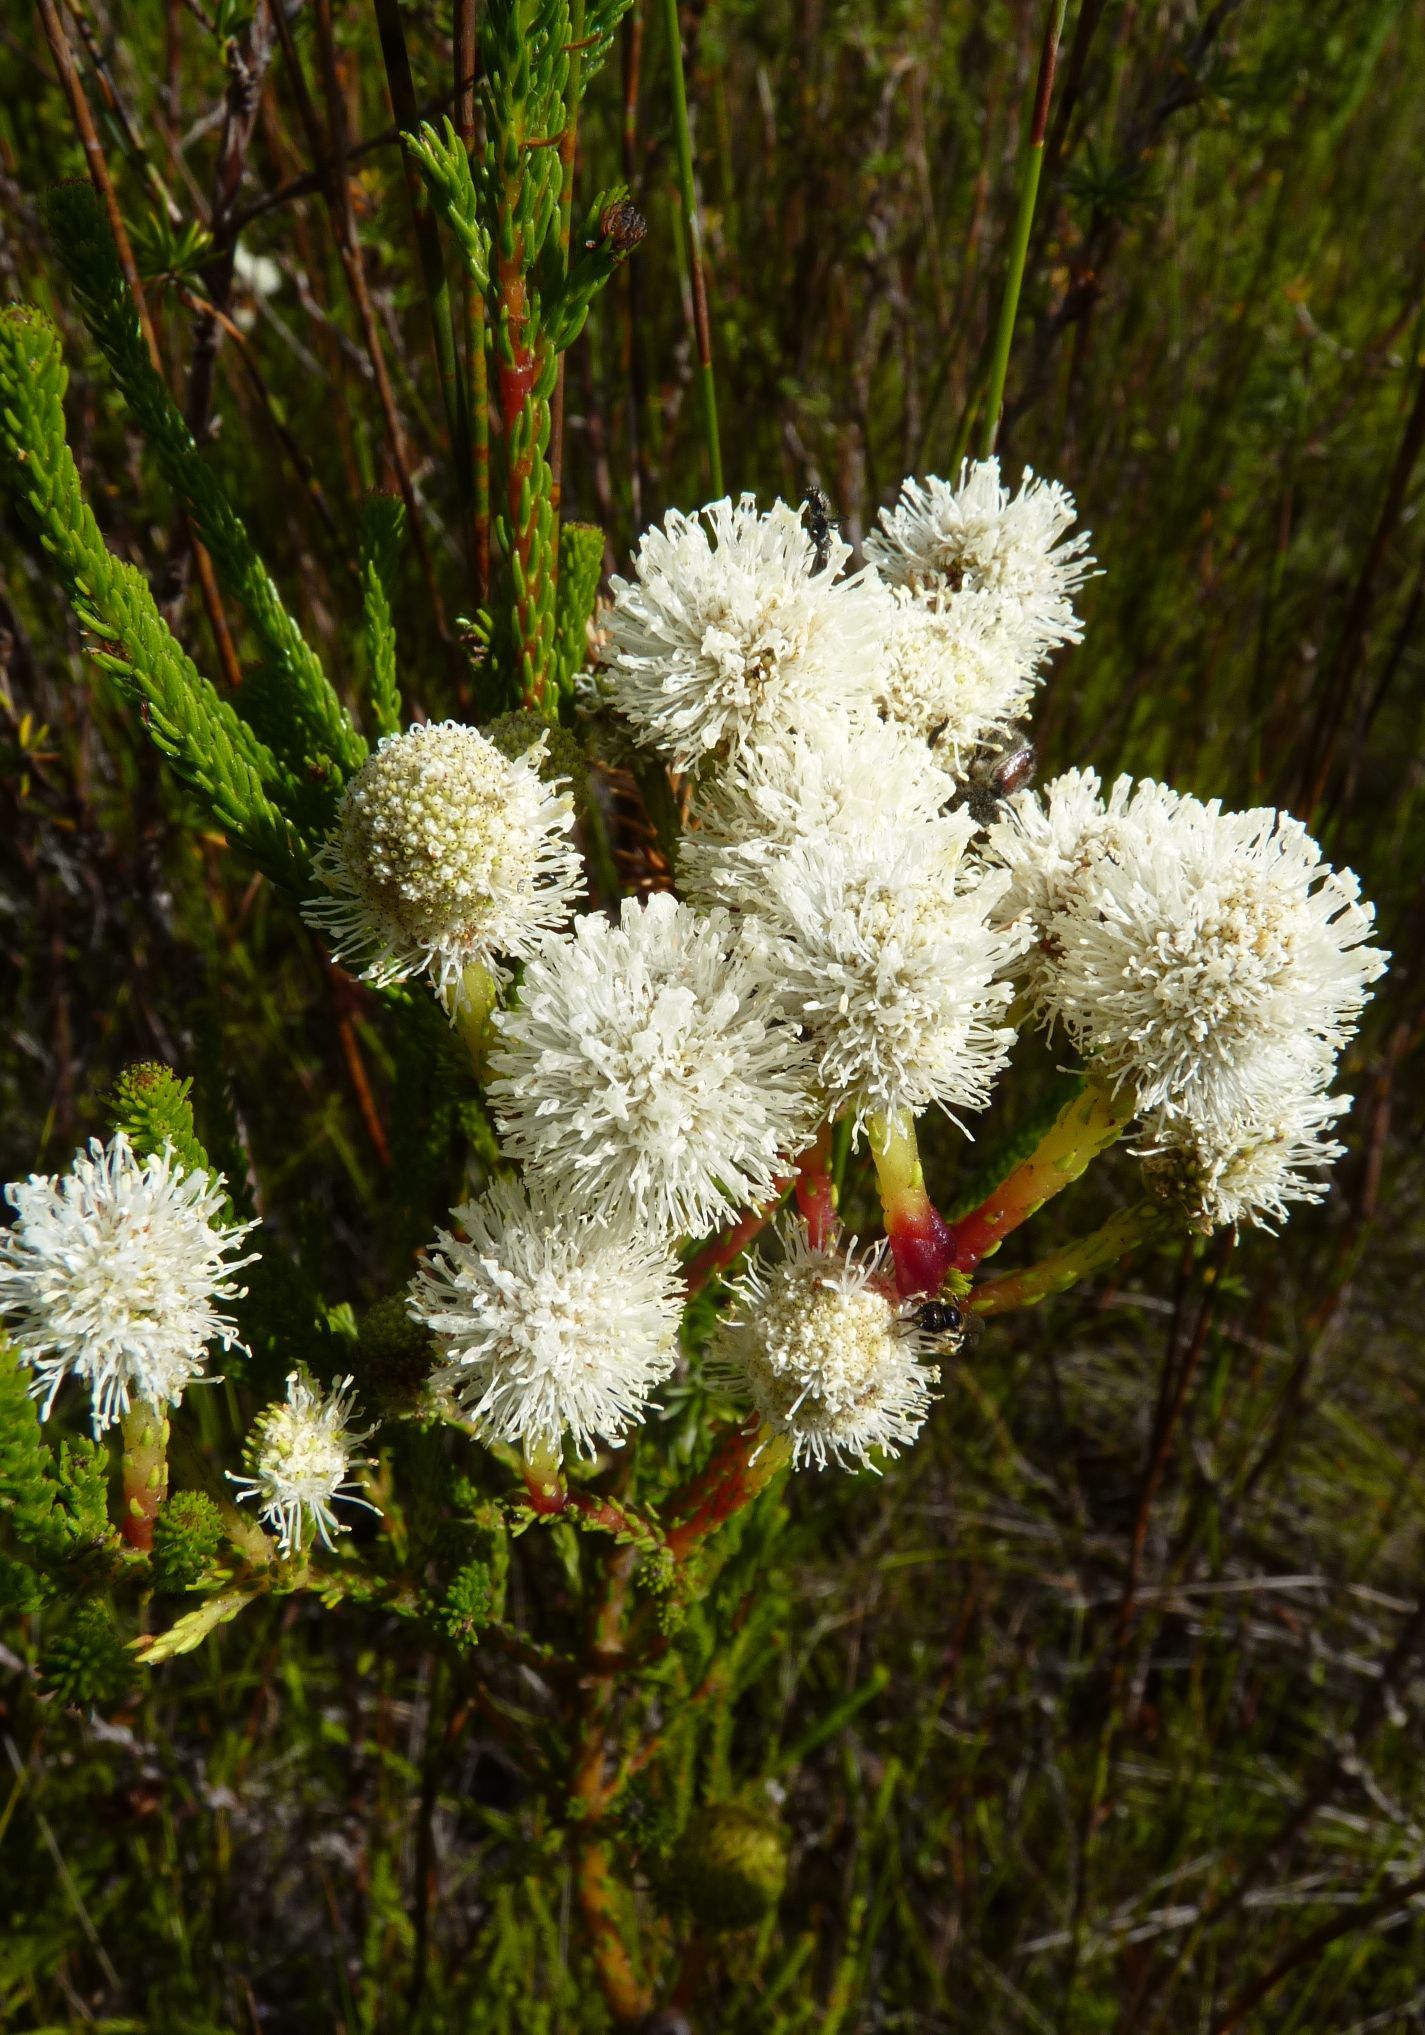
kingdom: Plantae
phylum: Tracheophyta
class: Magnoliopsida
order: Bruniales
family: Bruniaceae
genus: Berzelia
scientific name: Berzelia intermedia
